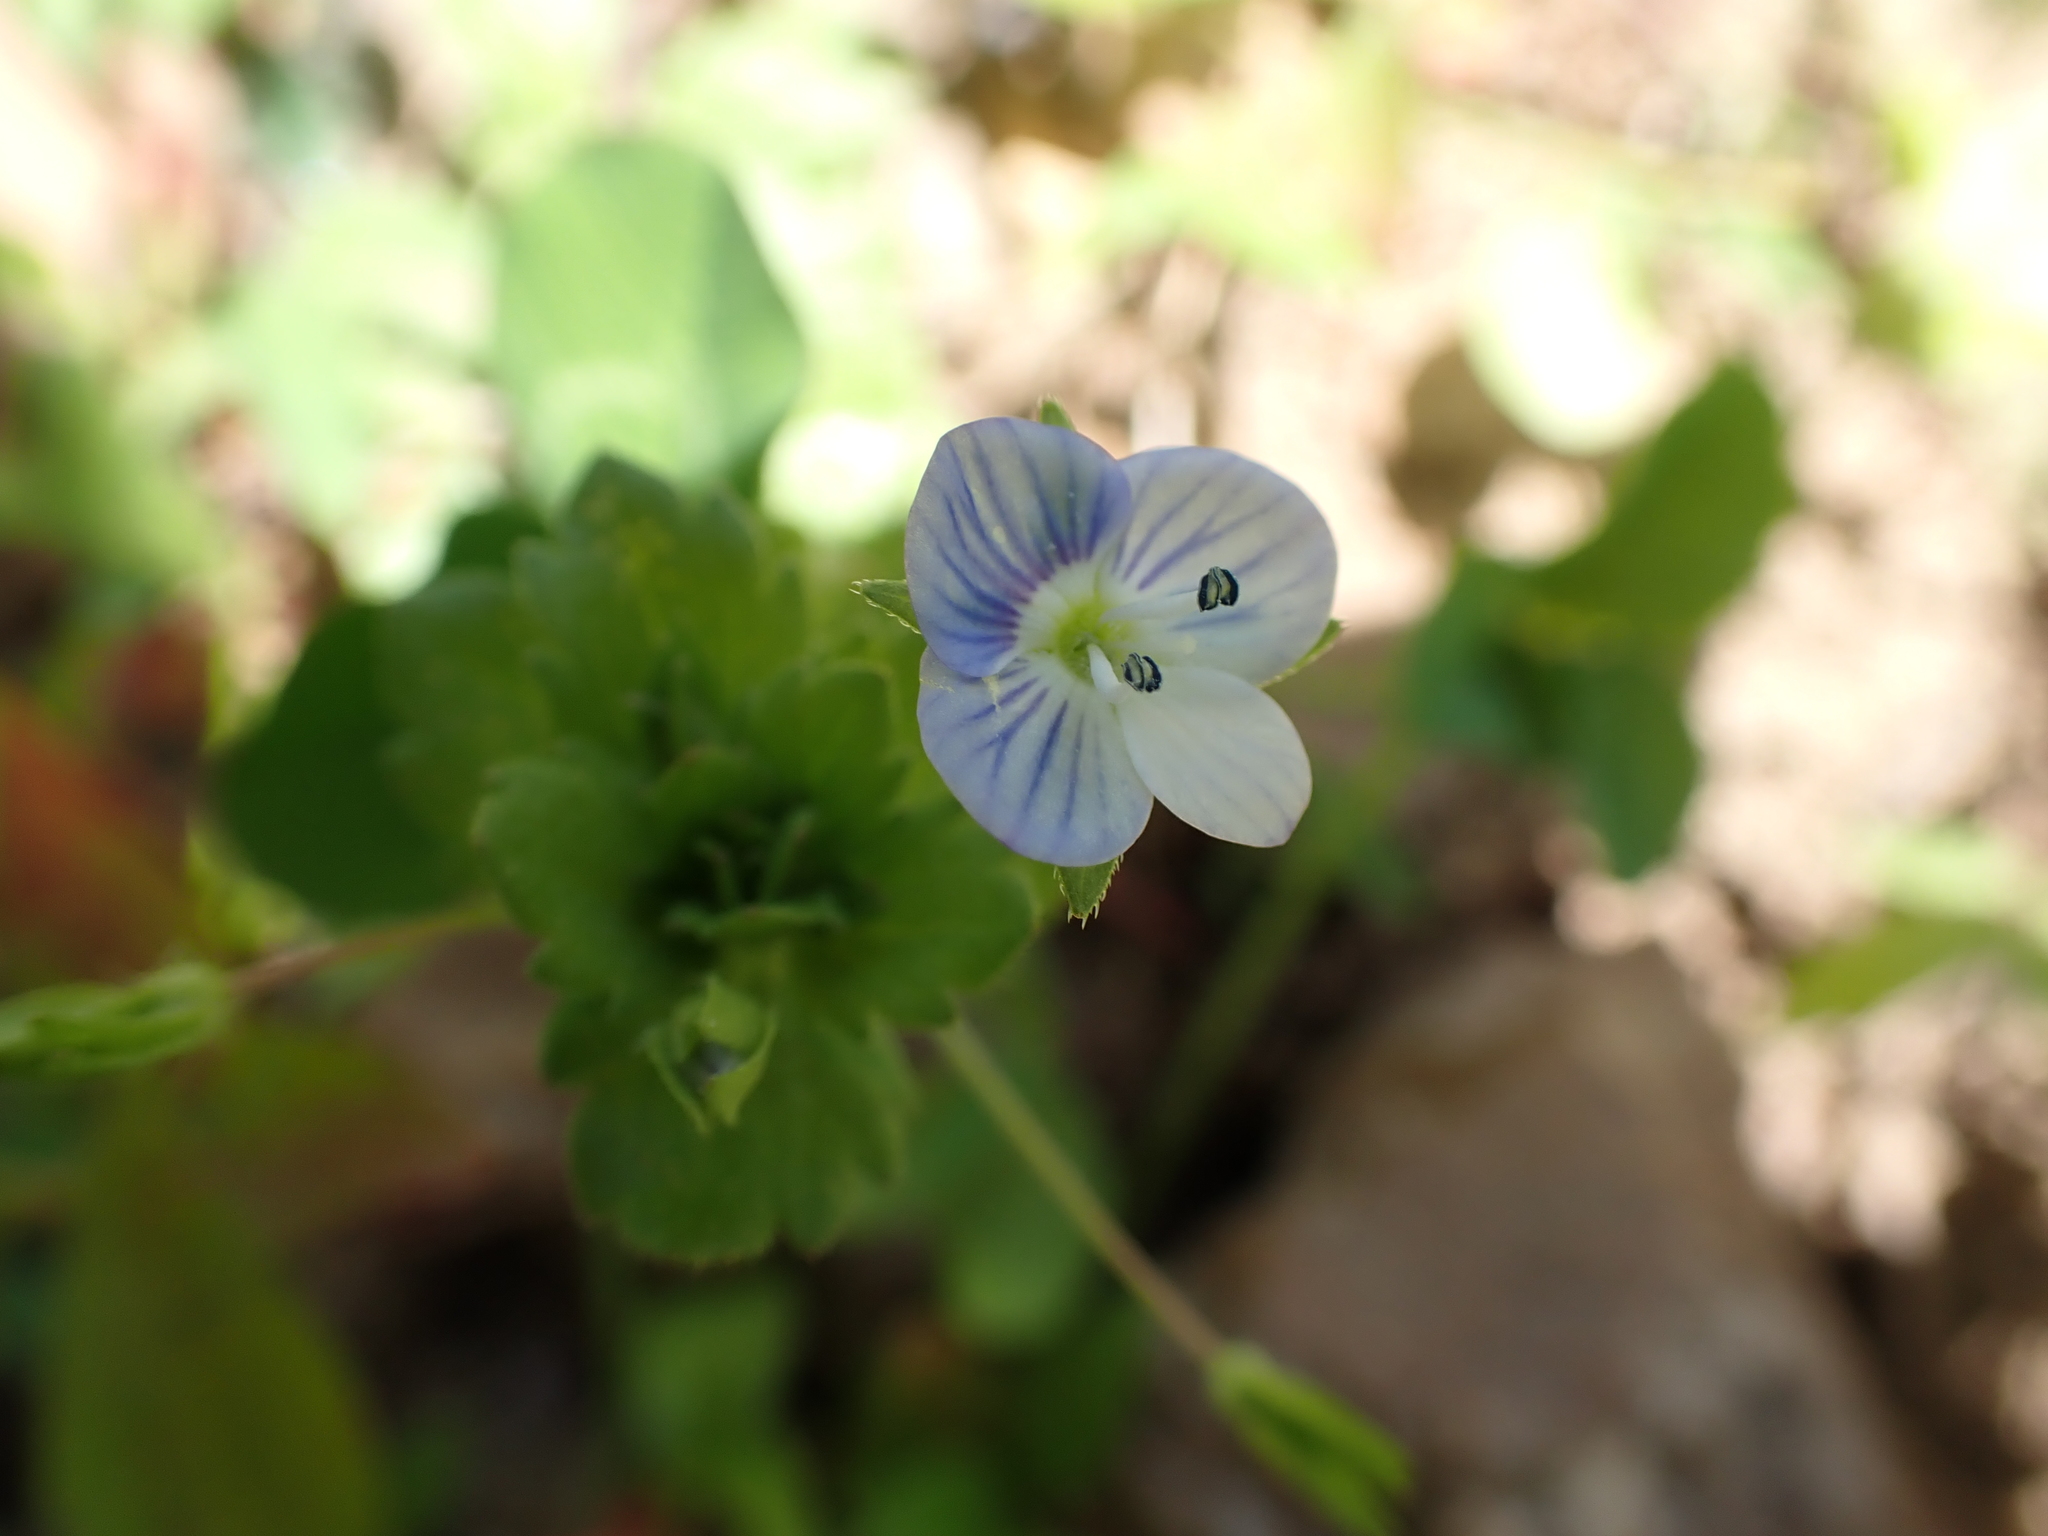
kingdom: Plantae
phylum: Tracheophyta
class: Magnoliopsida
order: Lamiales
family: Plantaginaceae
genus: Veronica
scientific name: Veronica persica
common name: Common field-speedwell
